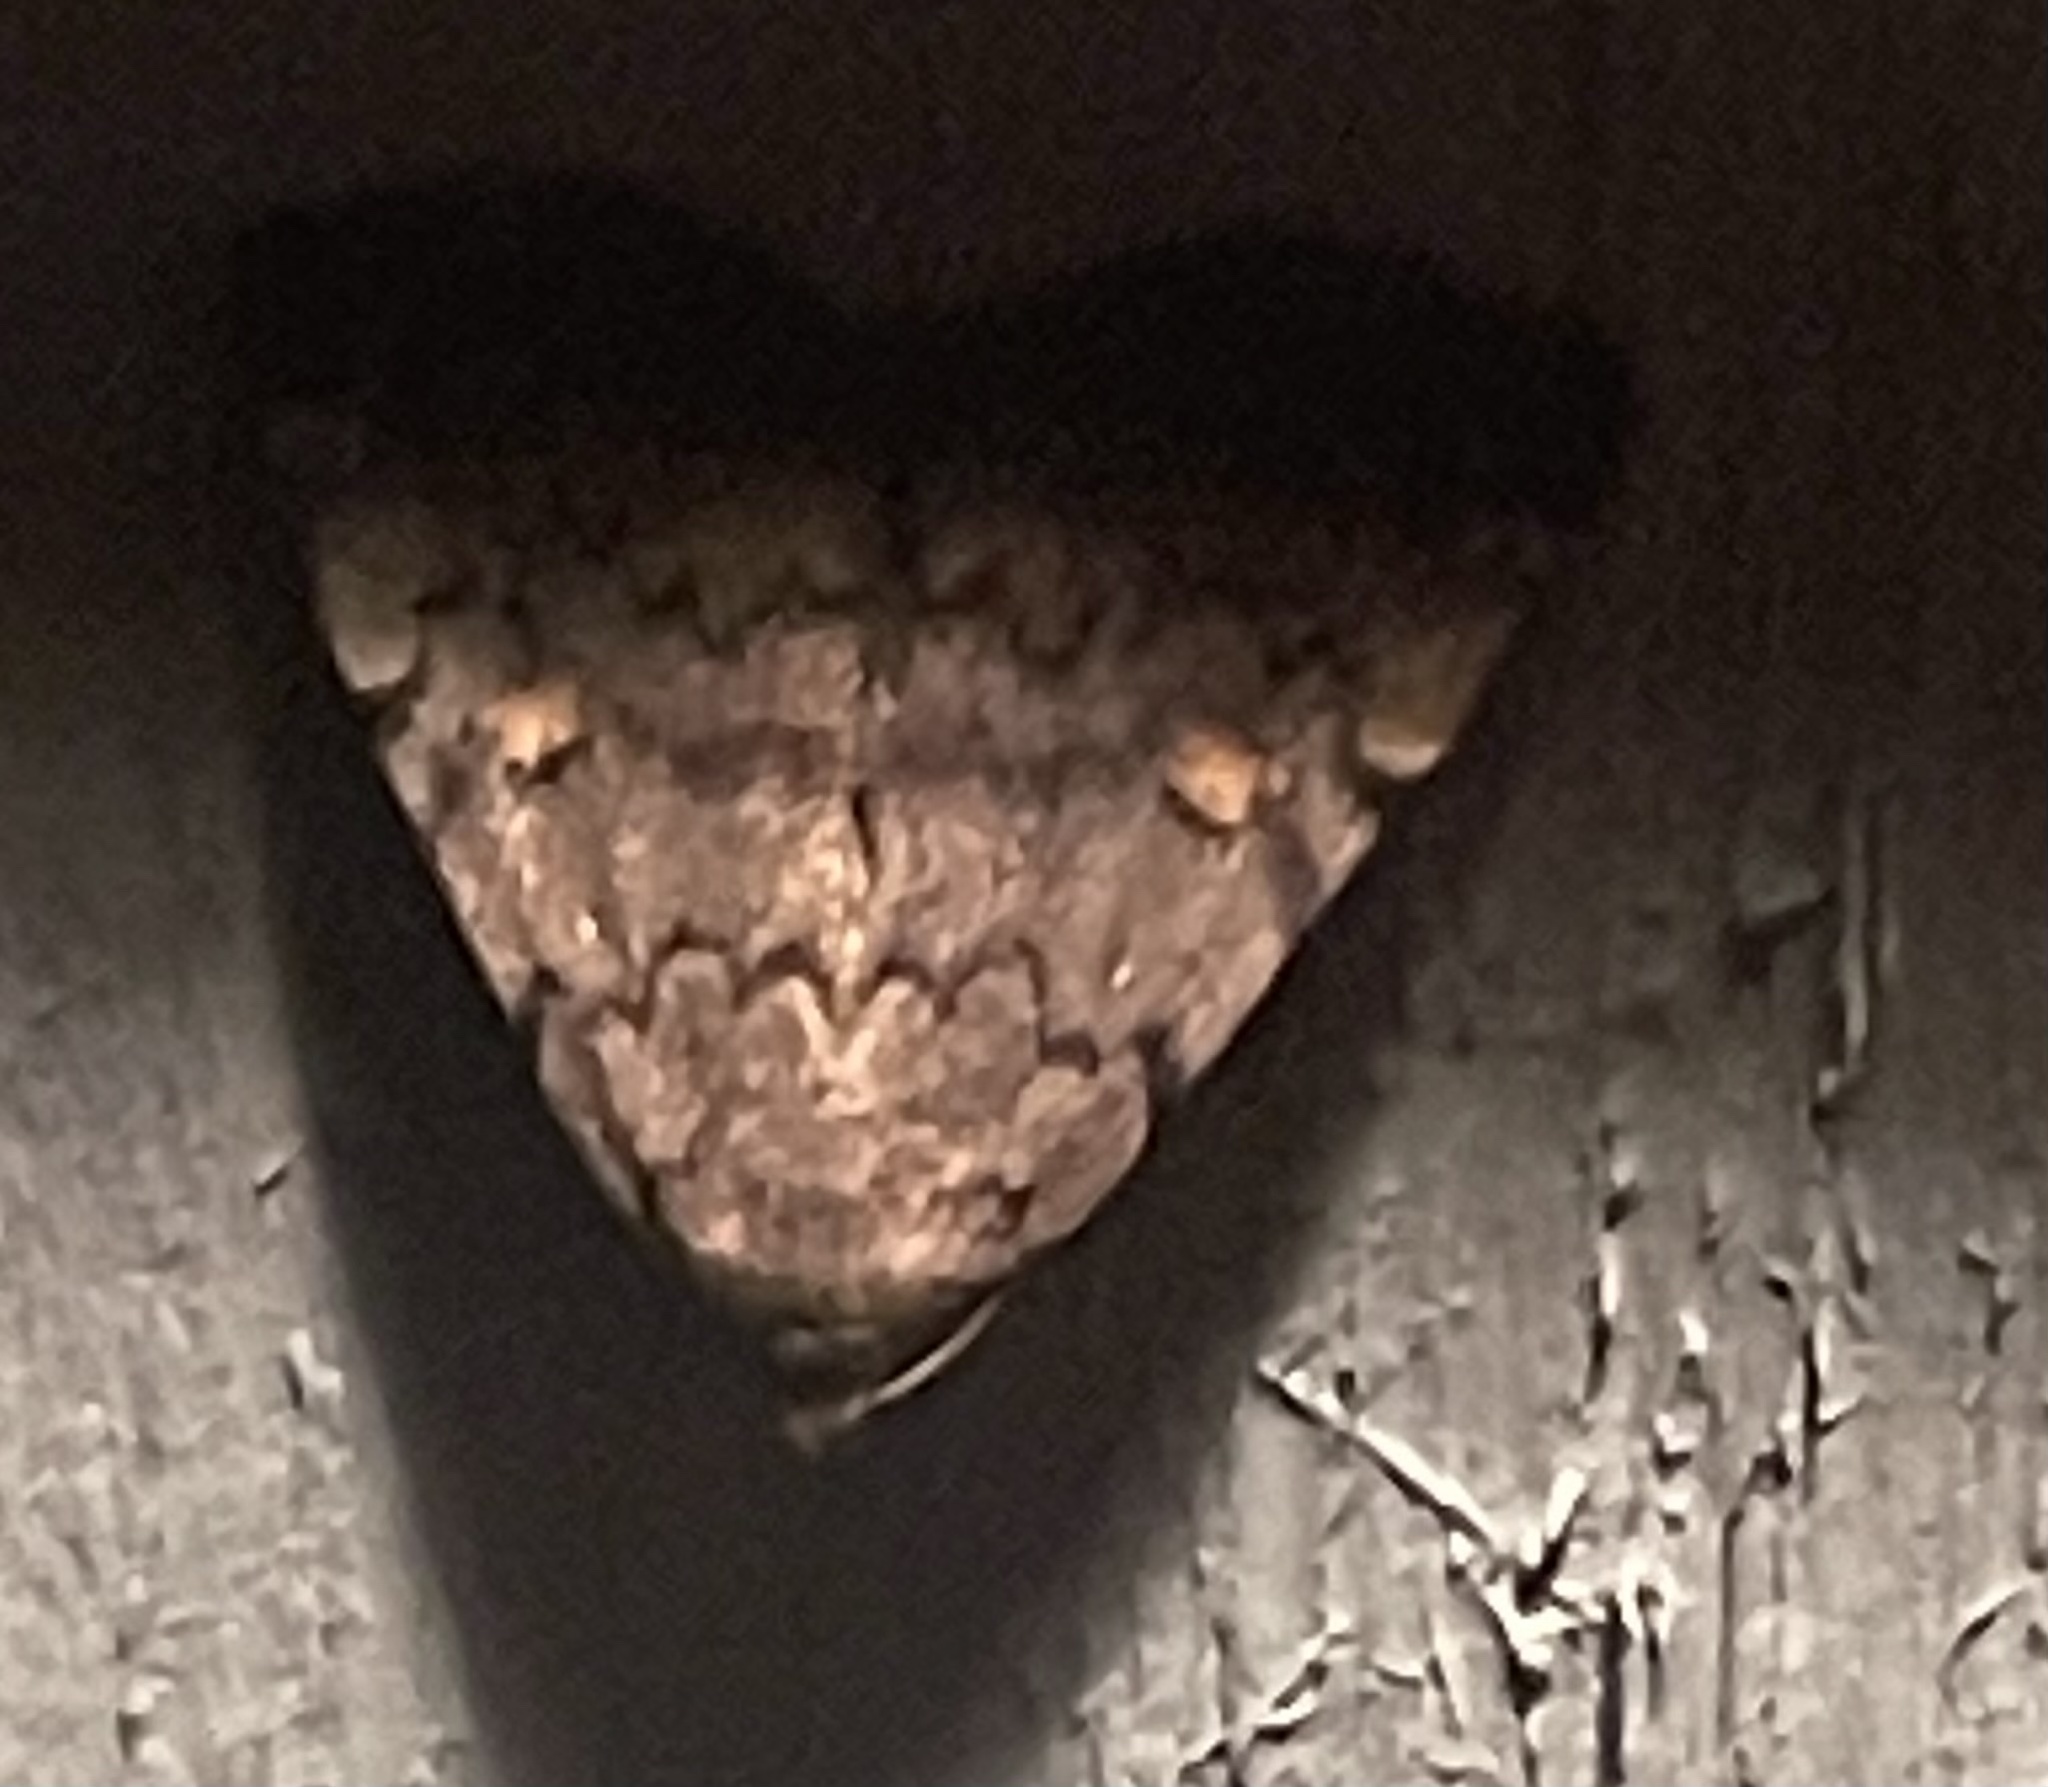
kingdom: Animalia
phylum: Arthropoda
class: Insecta
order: Lepidoptera
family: Erebidae
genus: Idia
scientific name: Idia aemula
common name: Common idia moth
